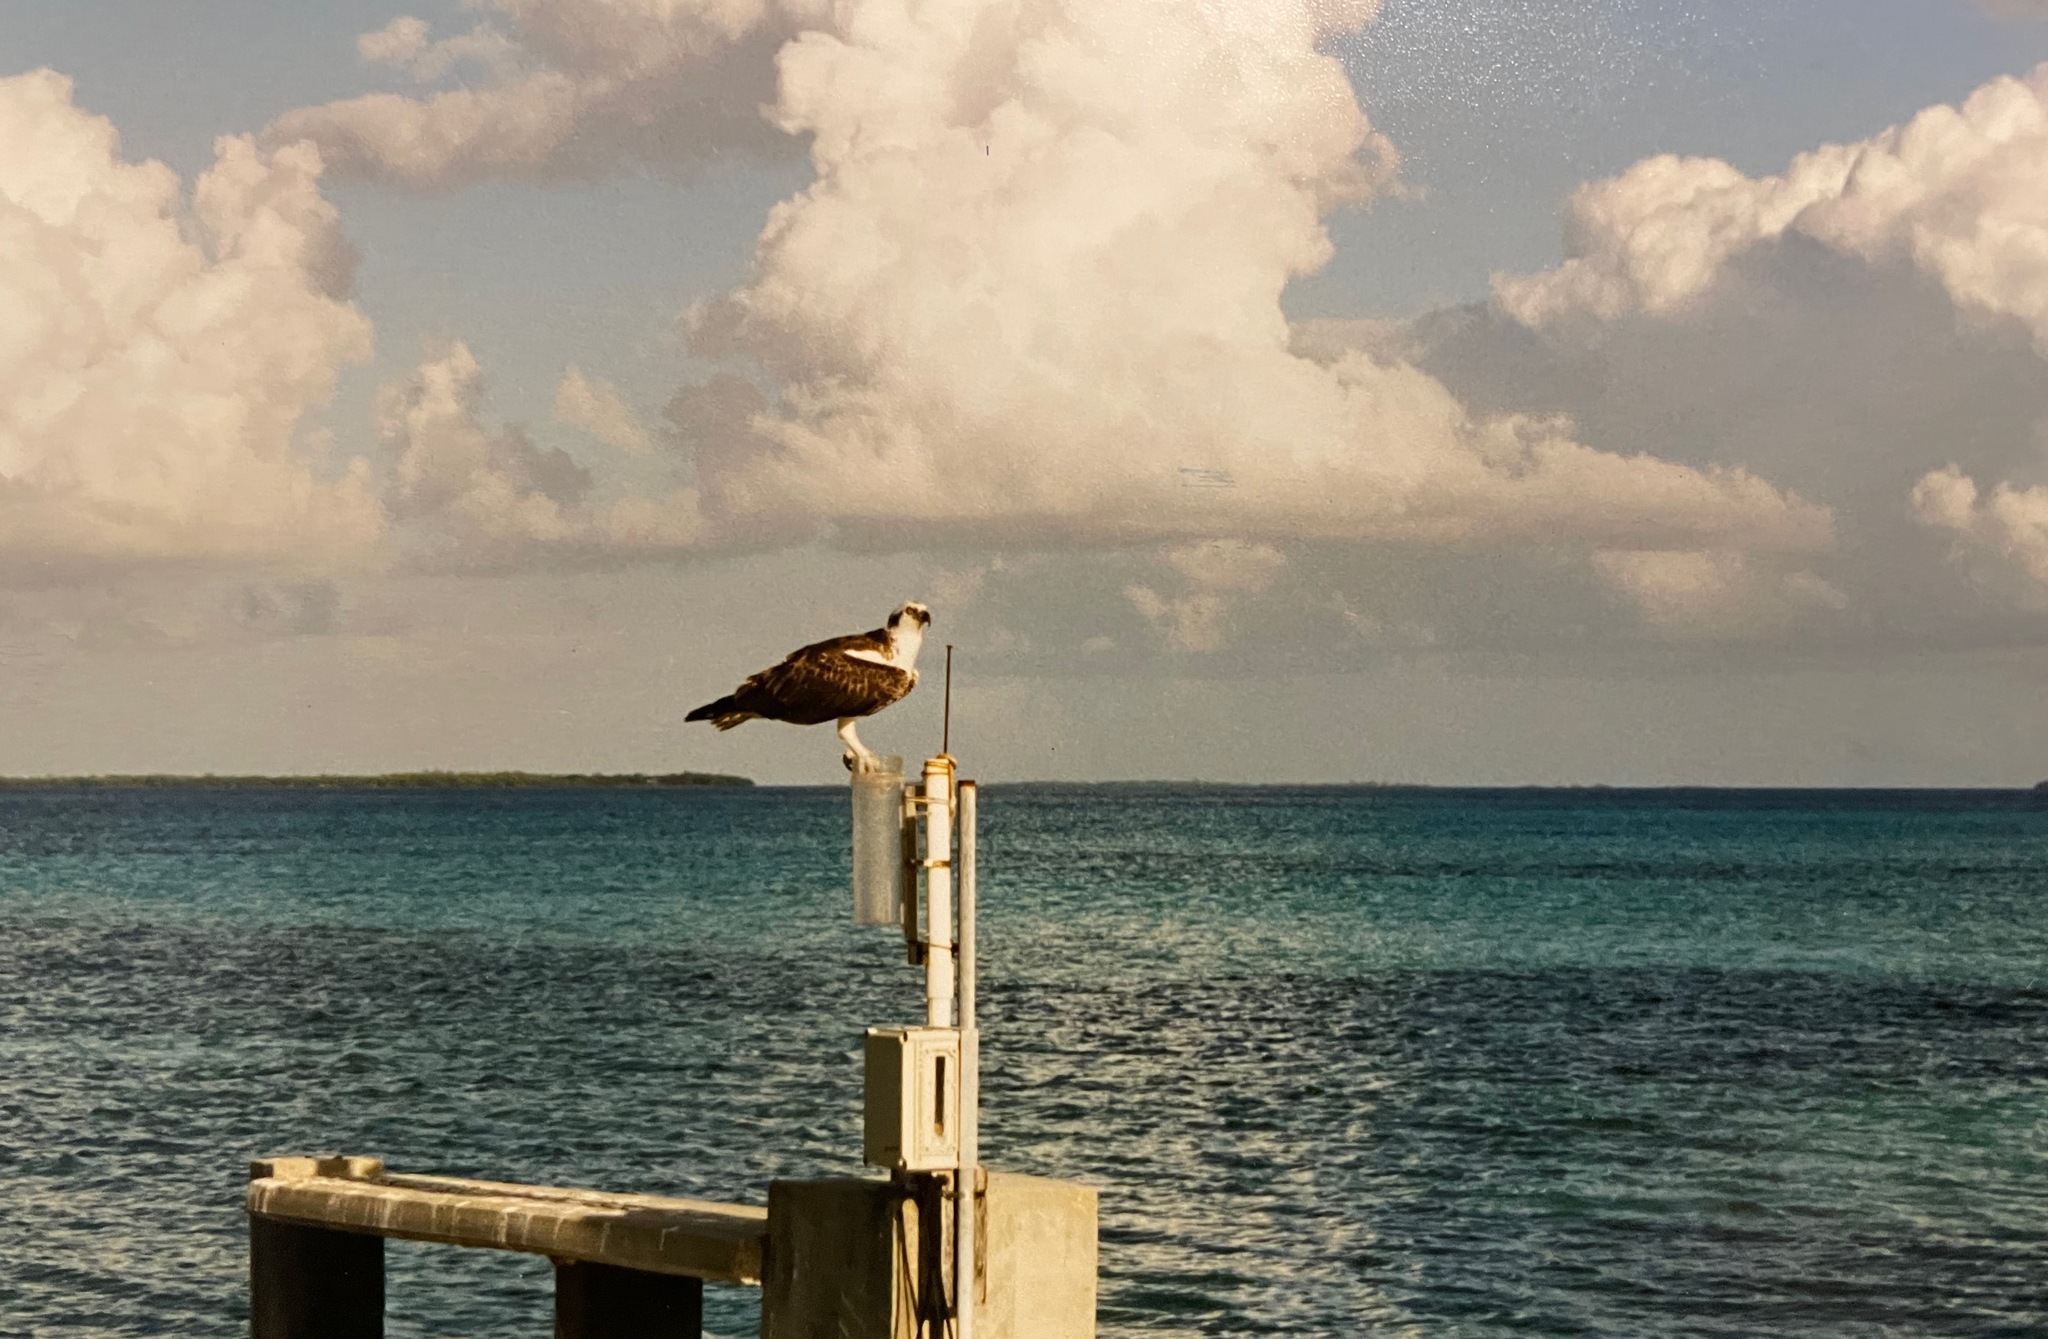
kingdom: Animalia
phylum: Chordata
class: Aves
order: Accipitriformes
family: Pandionidae
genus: Pandion
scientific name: Pandion haliaetus
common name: Osprey
